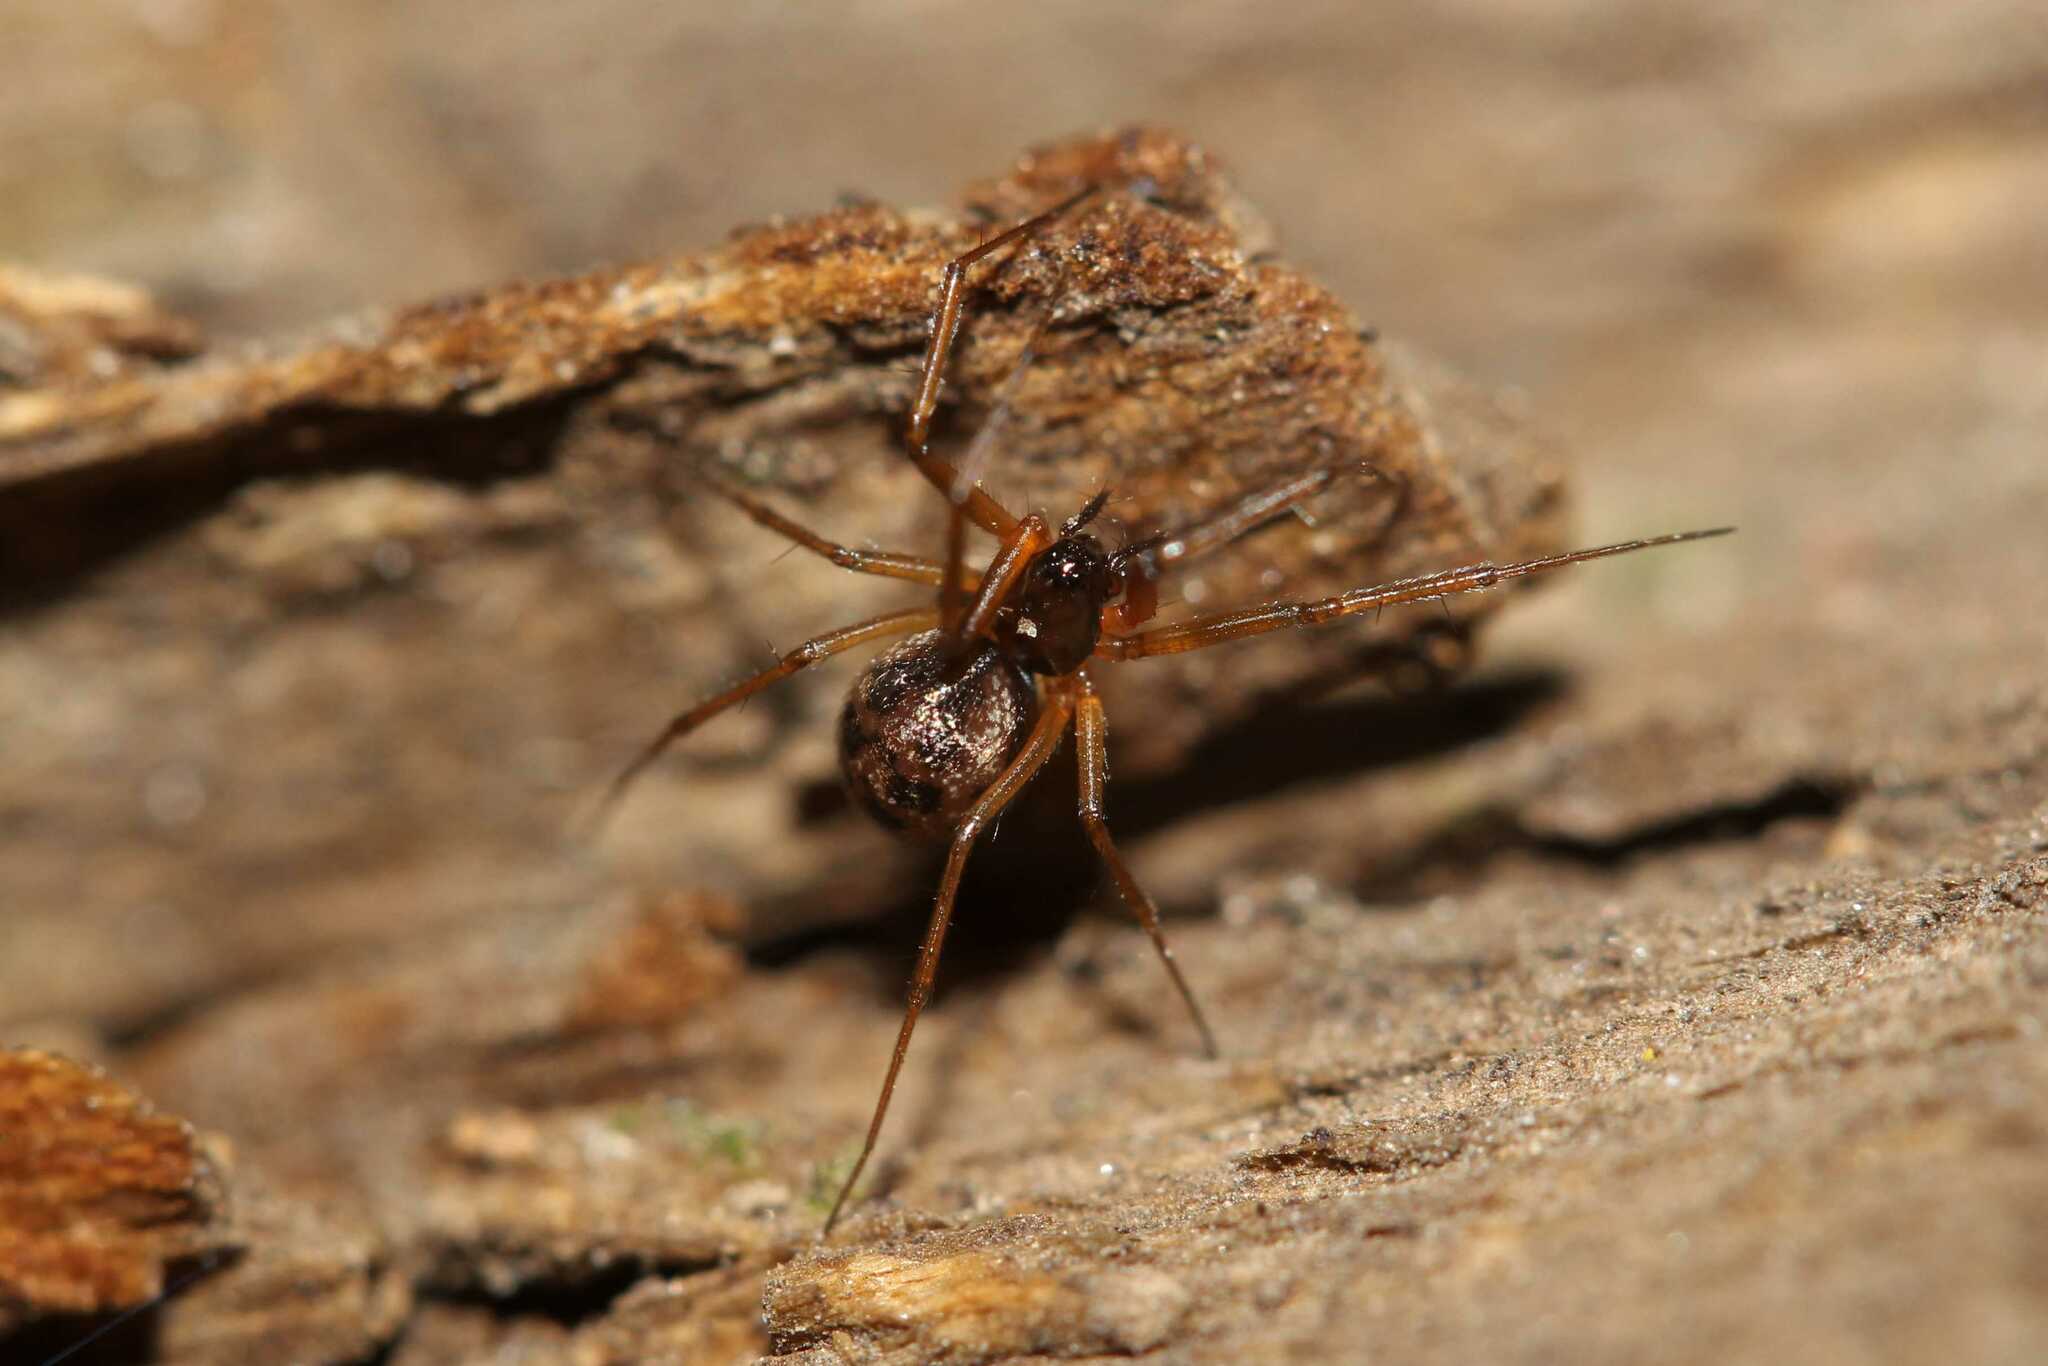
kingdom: Animalia
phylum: Arthropoda
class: Arachnida
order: Araneae
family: Linyphiidae
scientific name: Linyphiidae
